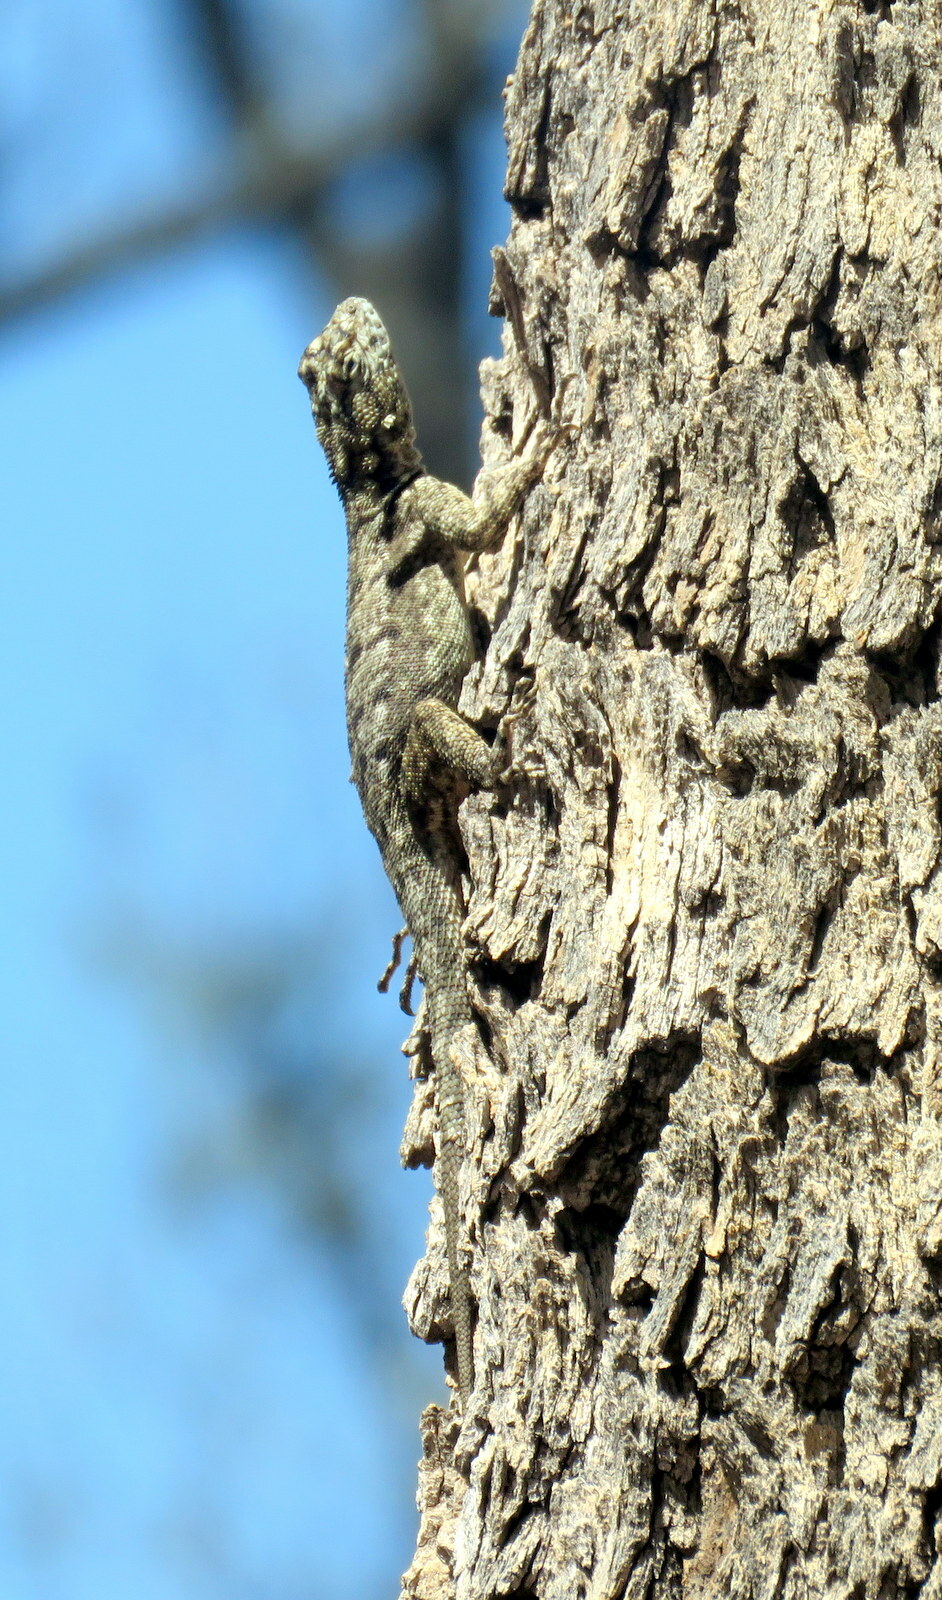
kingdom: Animalia
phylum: Chordata
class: Squamata
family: Tropiduridae
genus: Tropidurus
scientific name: Tropidurus spinulosus
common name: Spiny lava lizard
